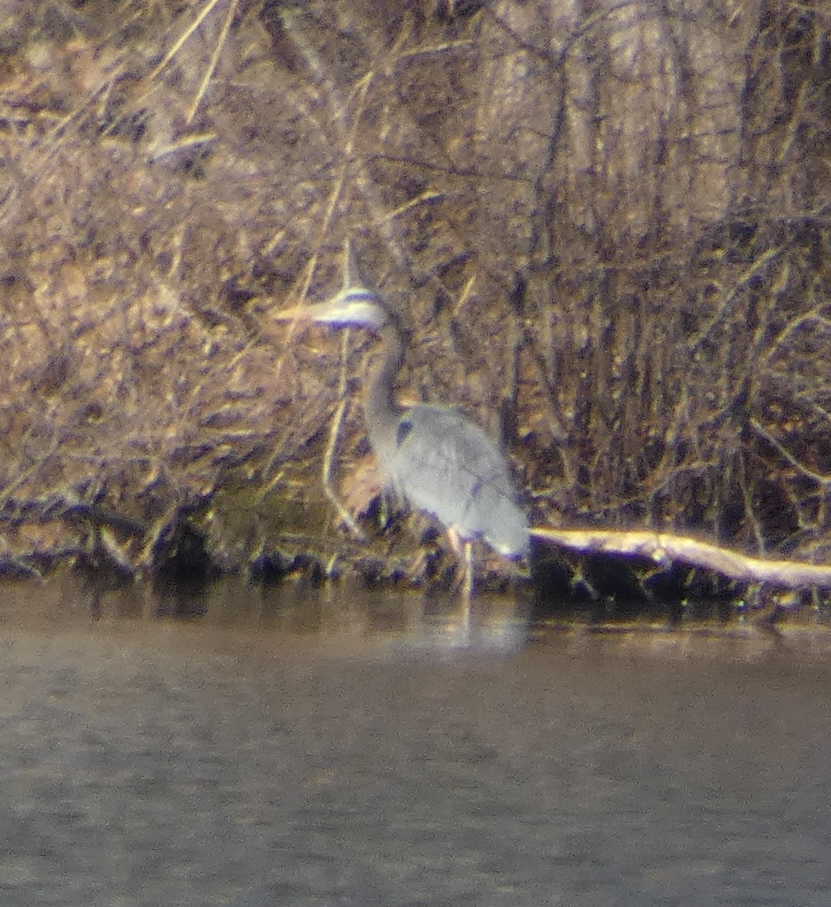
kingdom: Animalia
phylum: Chordata
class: Aves
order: Pelecaniformes
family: Ardeidae
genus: Ardea
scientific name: Ardea herodias
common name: Great blue heron
